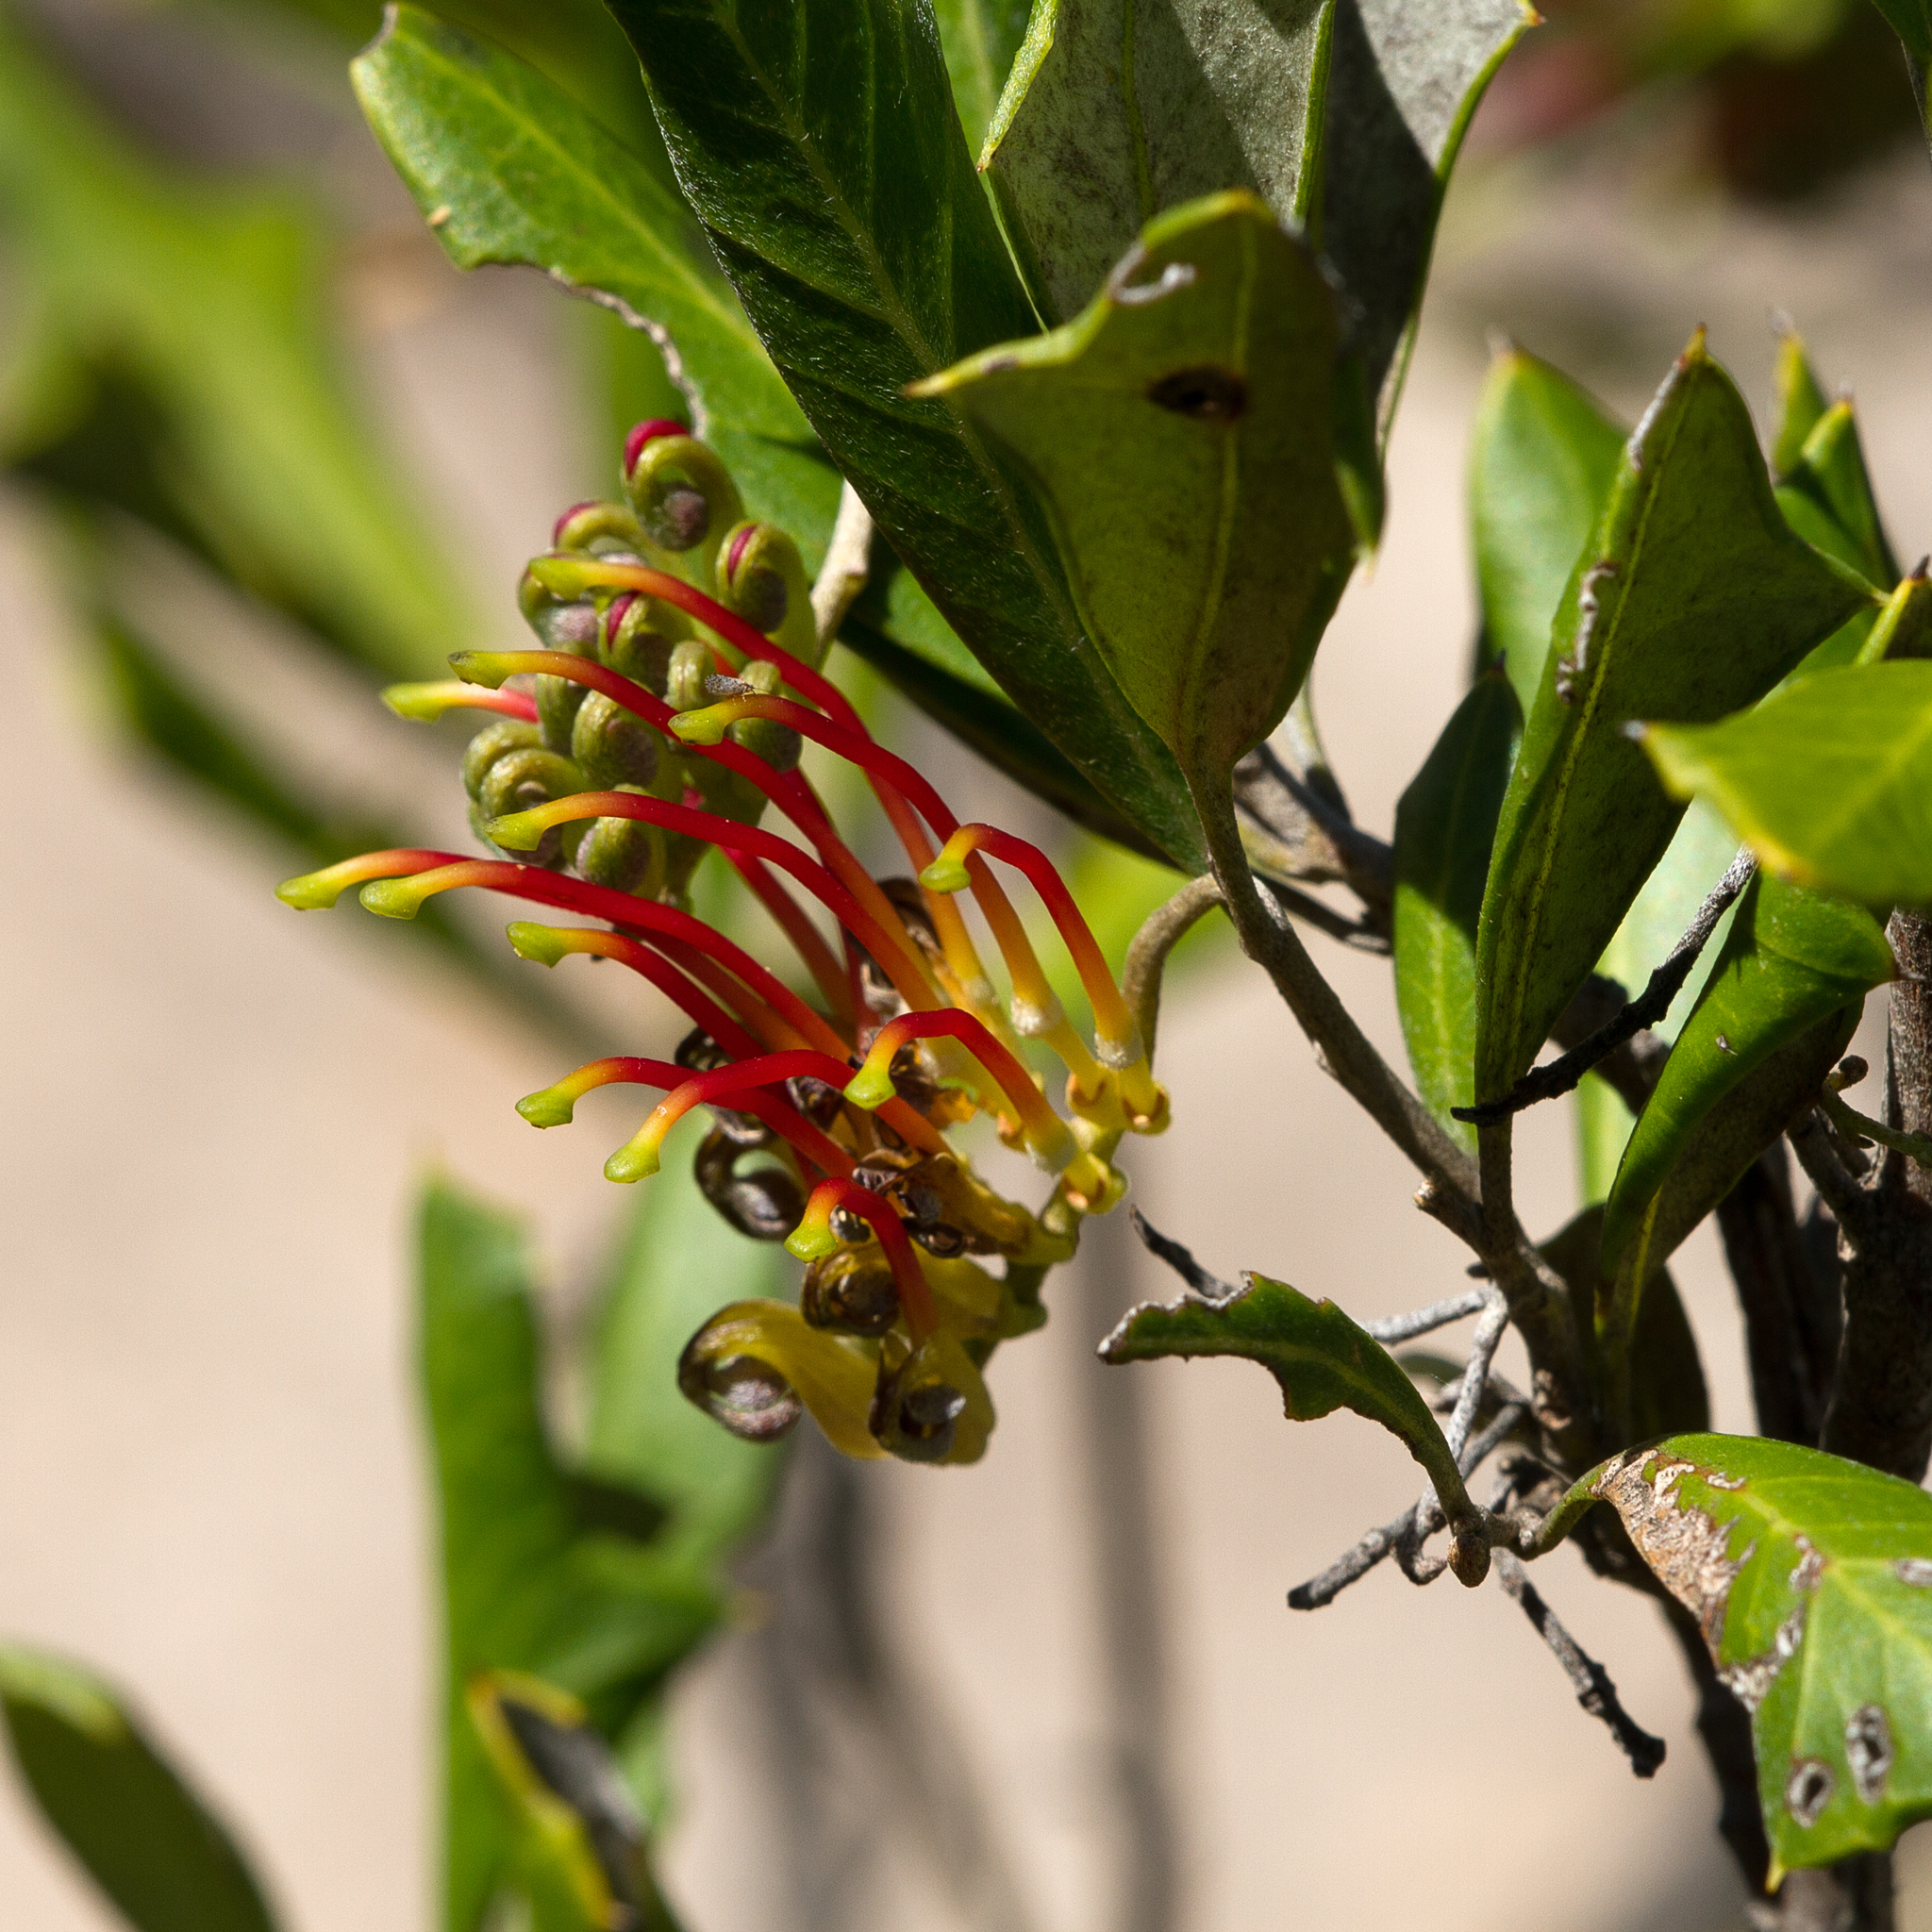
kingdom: Plantae
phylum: Tracheophyta
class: Magnoliopsida
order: Proteales
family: Proteaceae
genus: Grevillea
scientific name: Grevillea ilicifolia
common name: Holly grevillea
